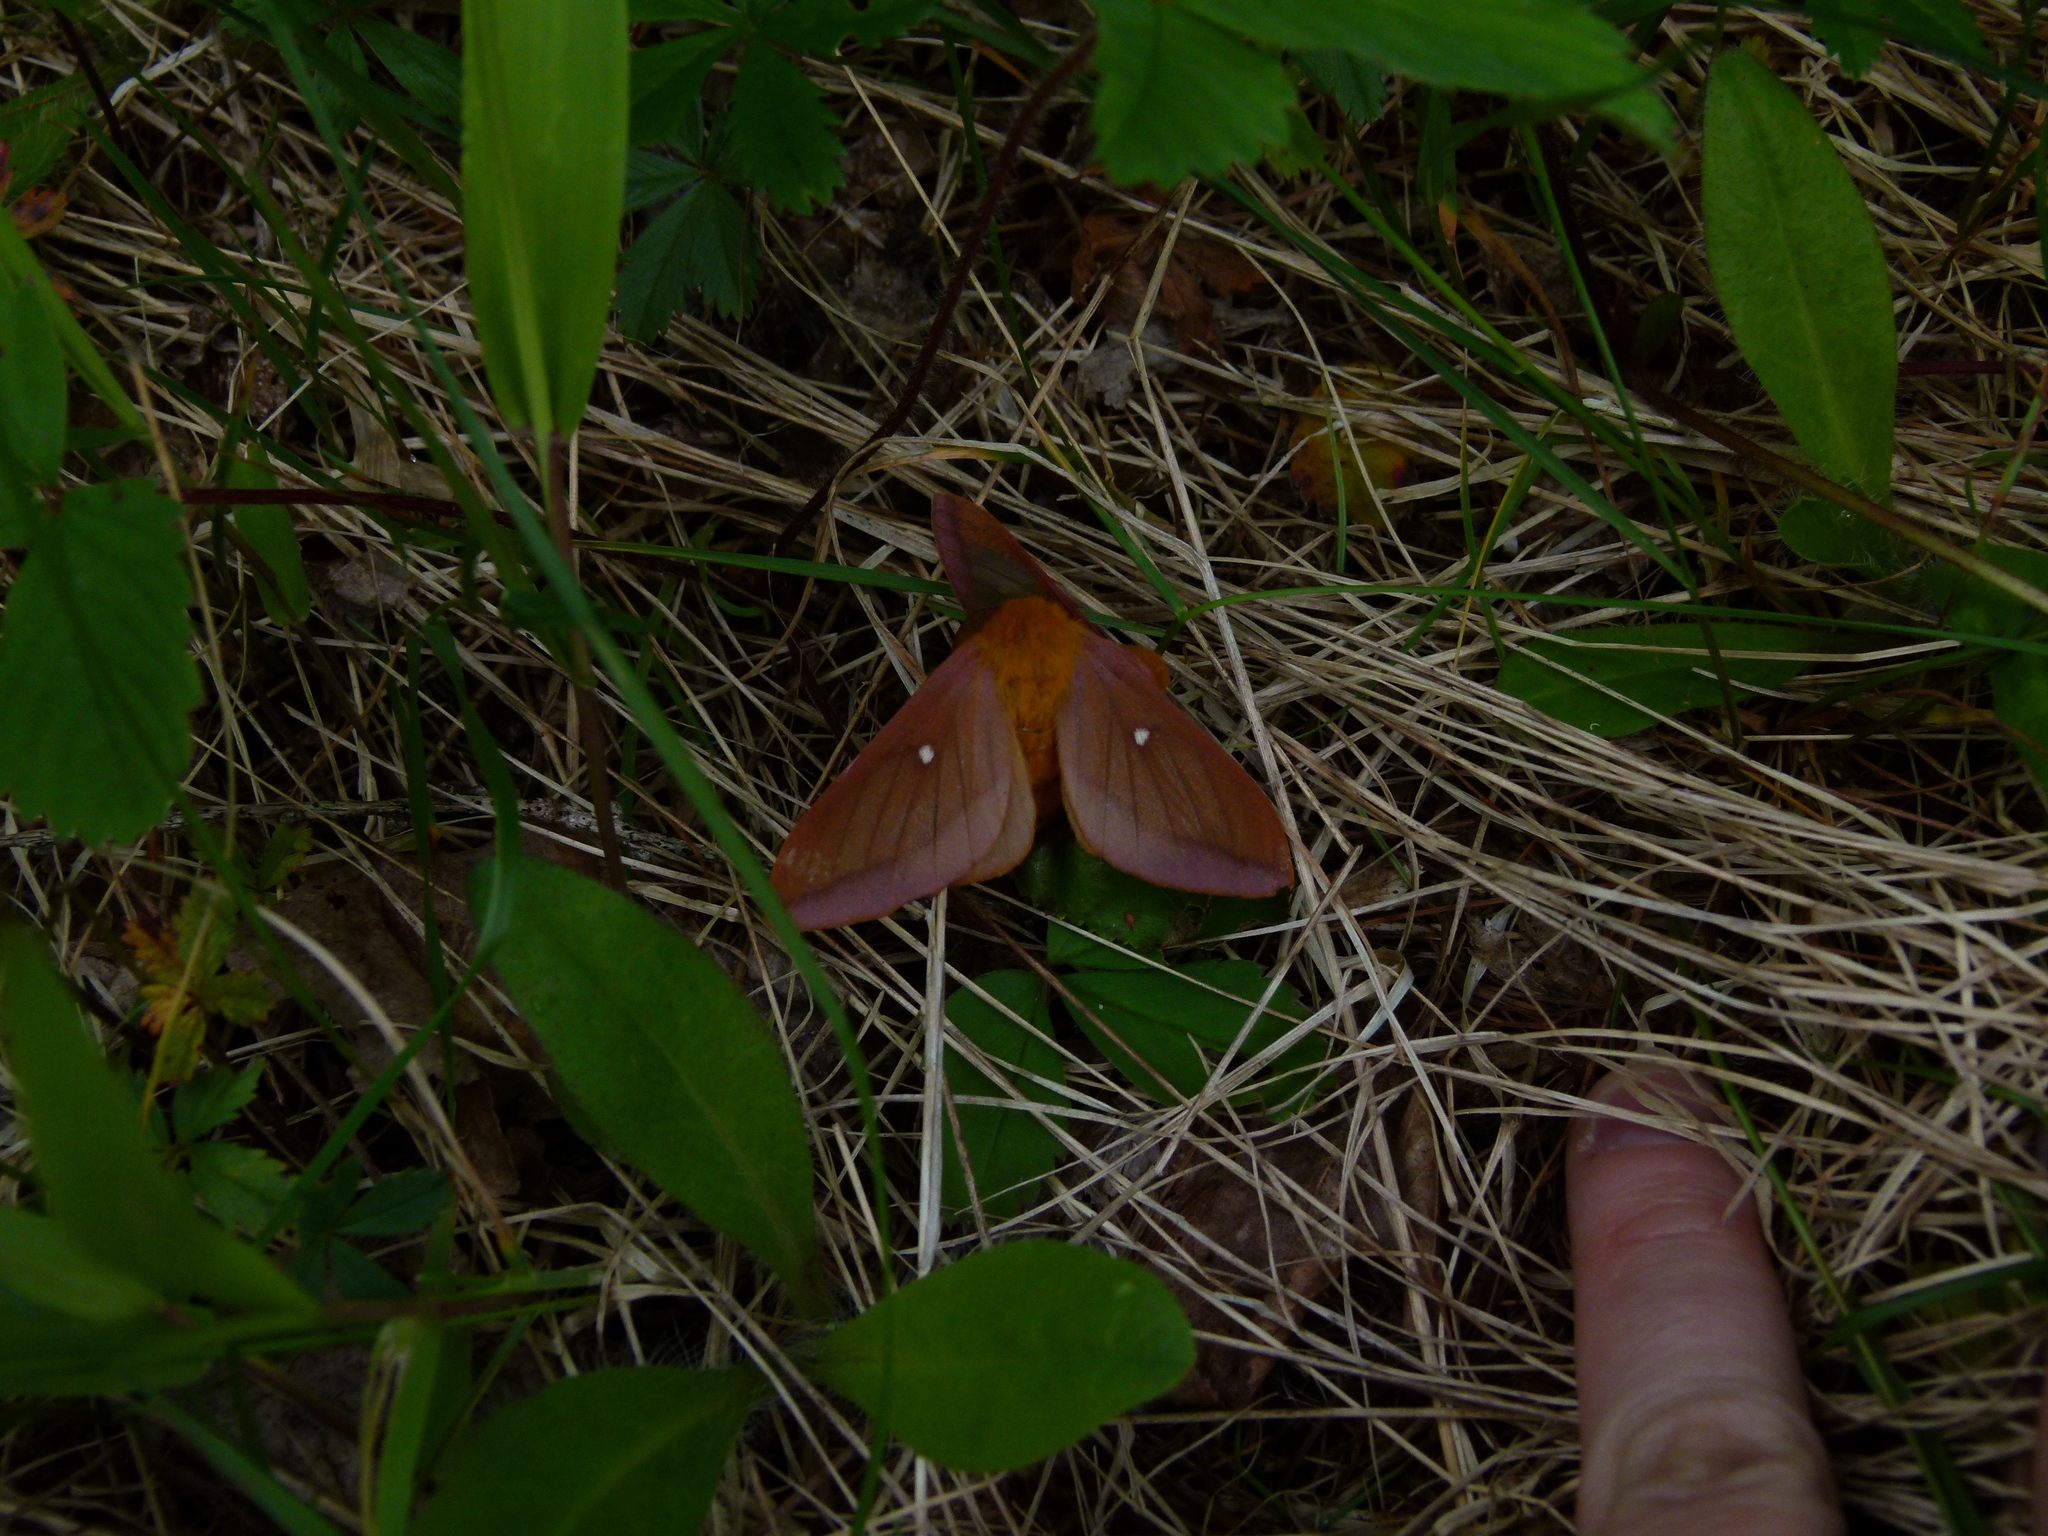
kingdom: Animalia
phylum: Arthropoda
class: Insecta
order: Lepidoptera
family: Saturniidae
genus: Anisota
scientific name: Anisota virginiensis
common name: Pink striped oakworm moth
